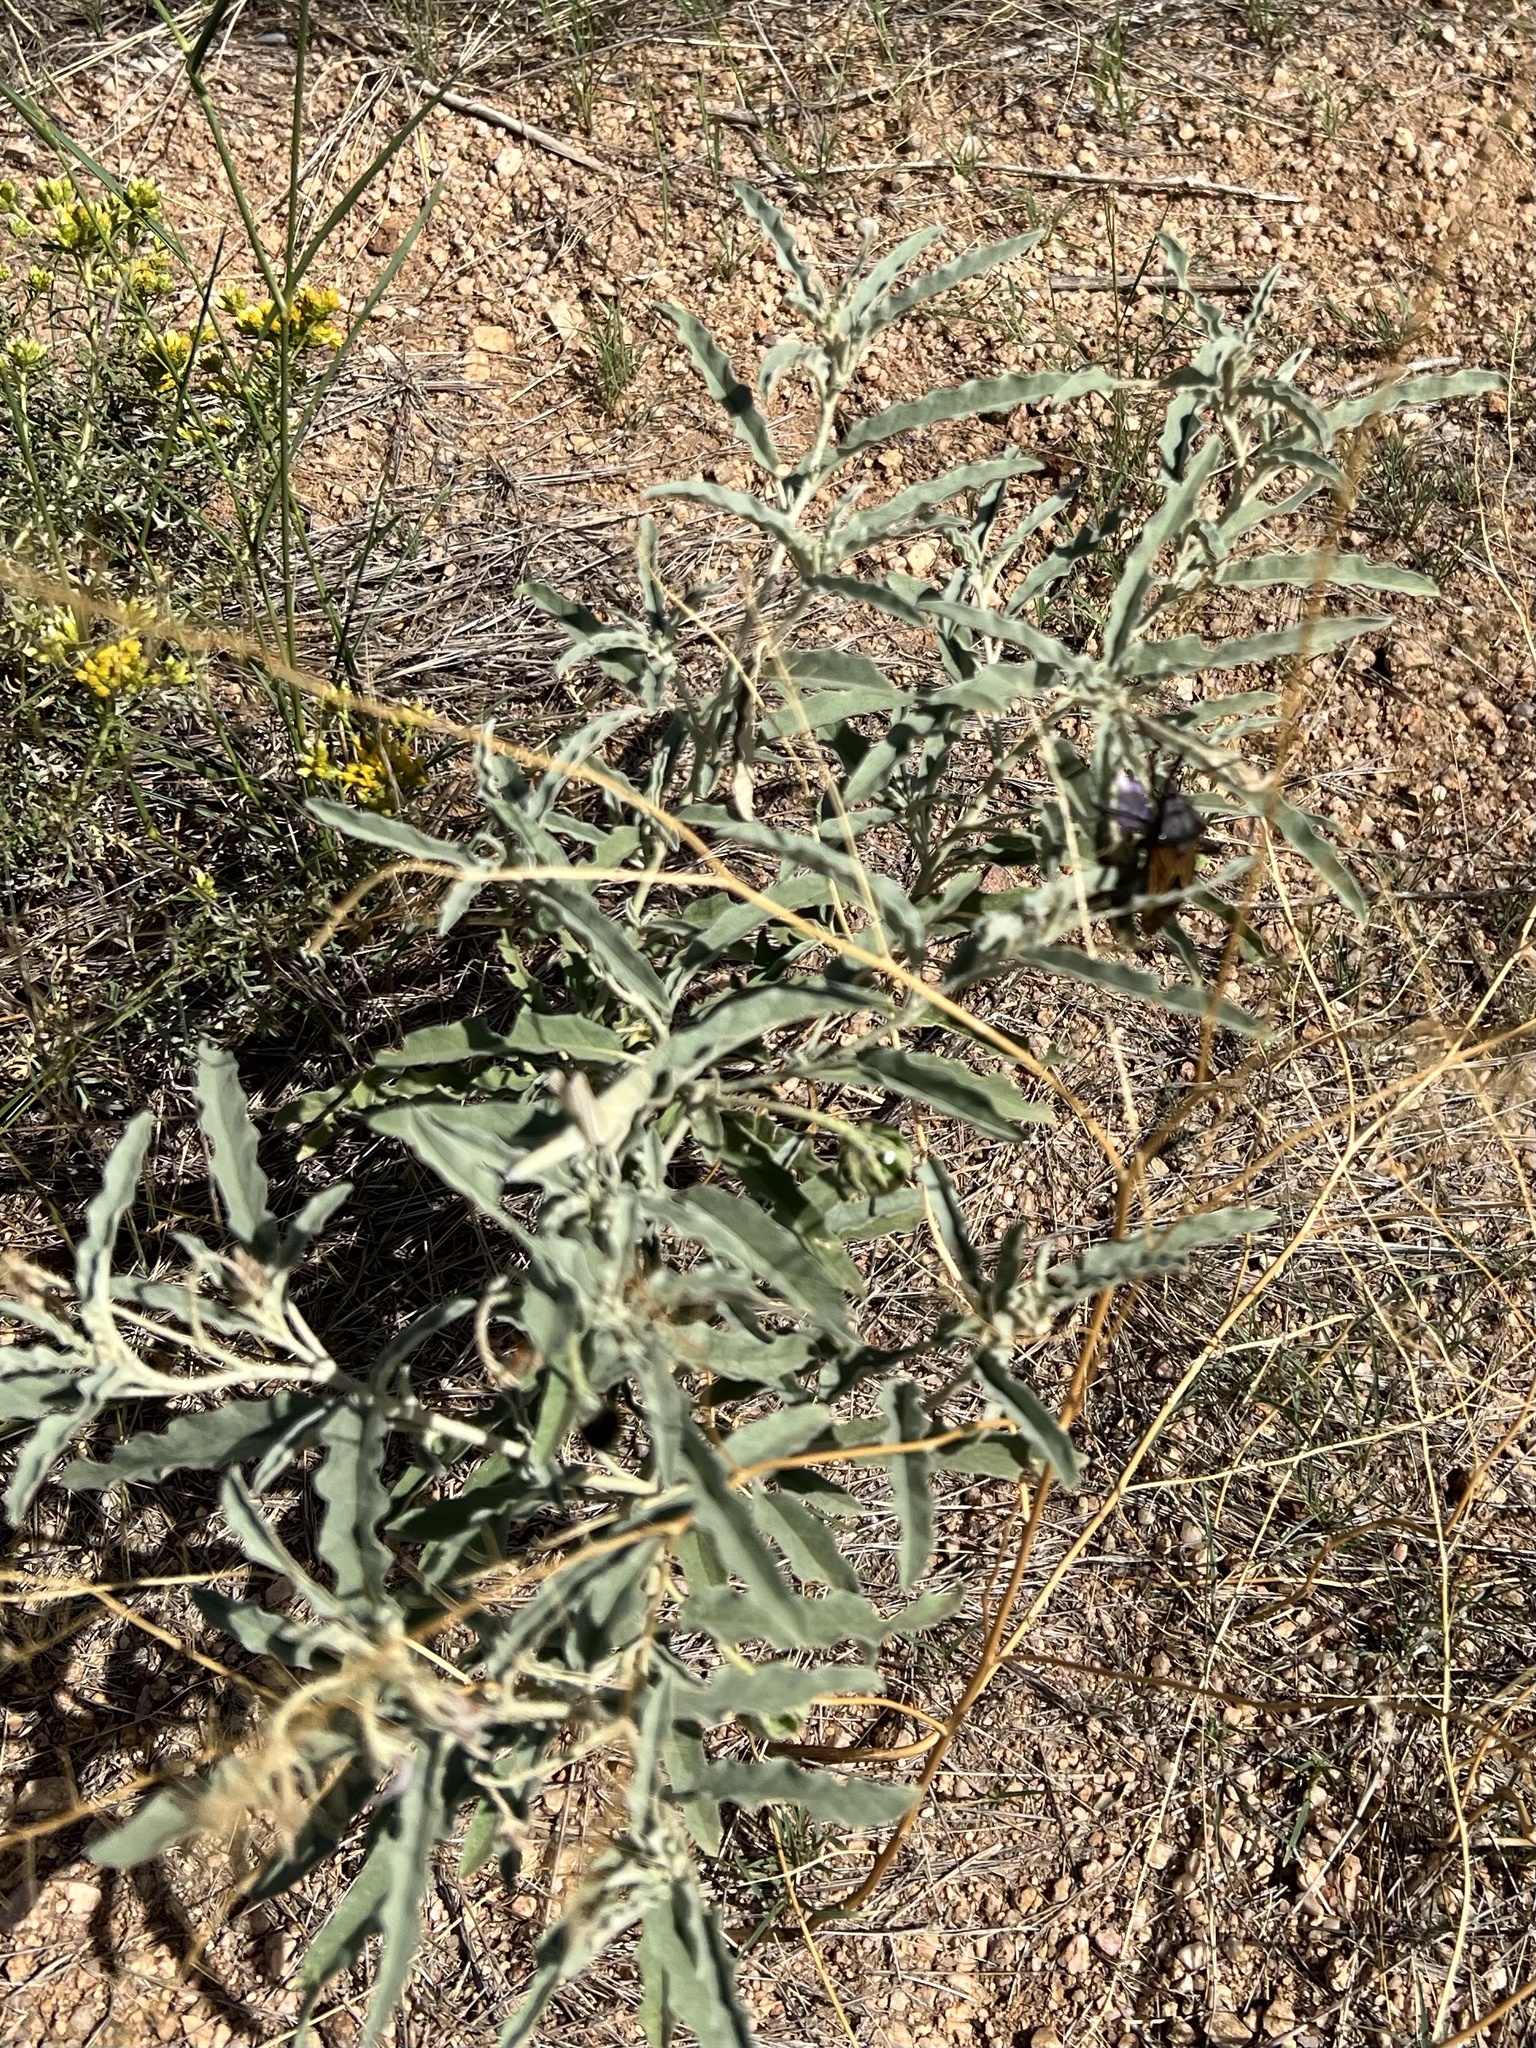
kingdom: Plantae
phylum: Tracheophyta
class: Magnoliopsida
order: Solanales
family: Solanaceae
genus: Solanum
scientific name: Solanum elaeagnifolium
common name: Silverleaf nightshade
